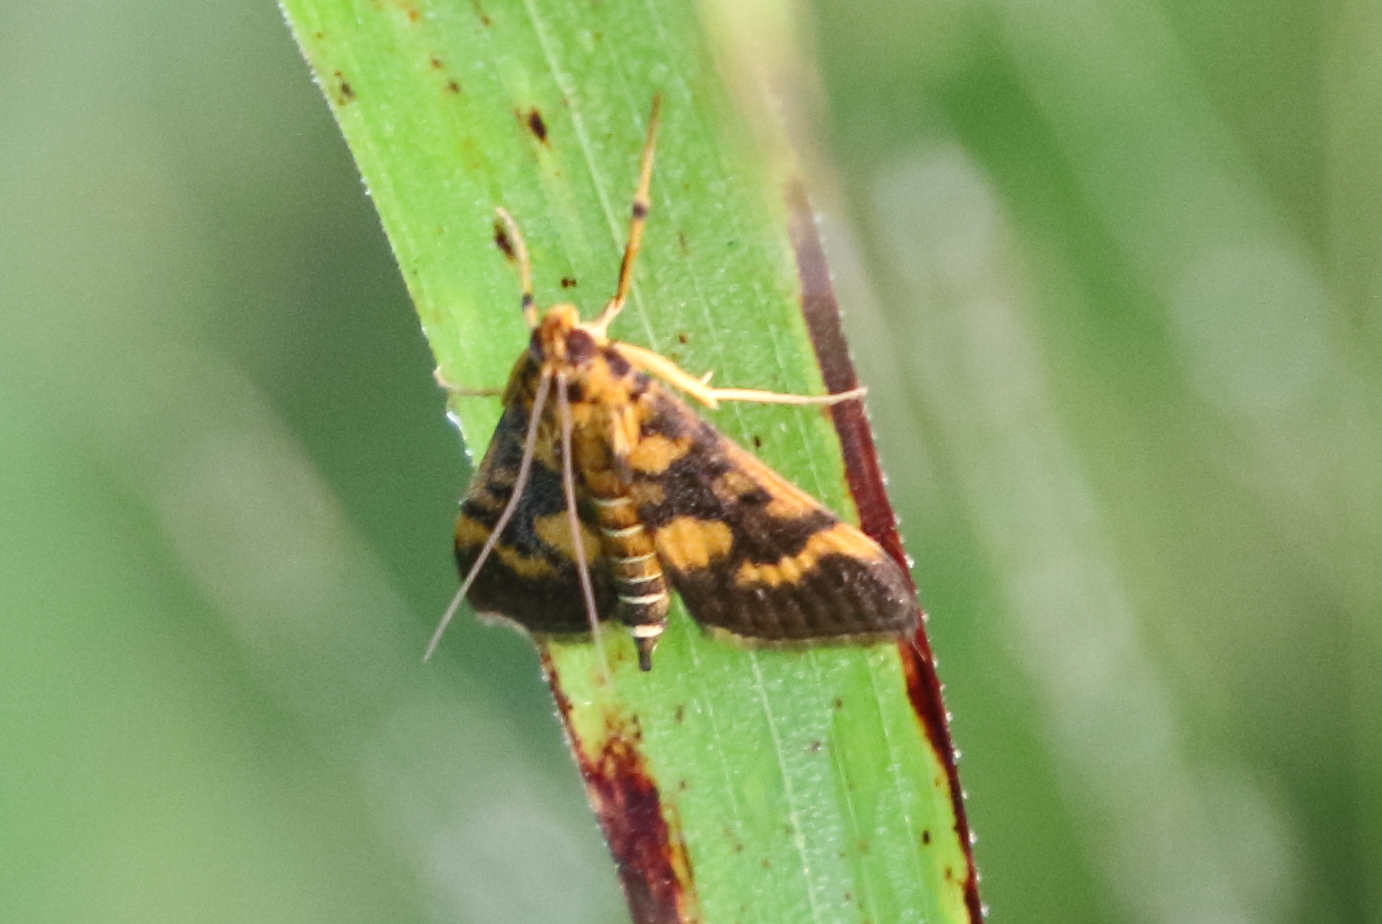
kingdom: Animalia
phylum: Arthropoda
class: Insecta
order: Lepidoptera
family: Crambidae
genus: Omiodes
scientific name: Omiodes diemenalis
